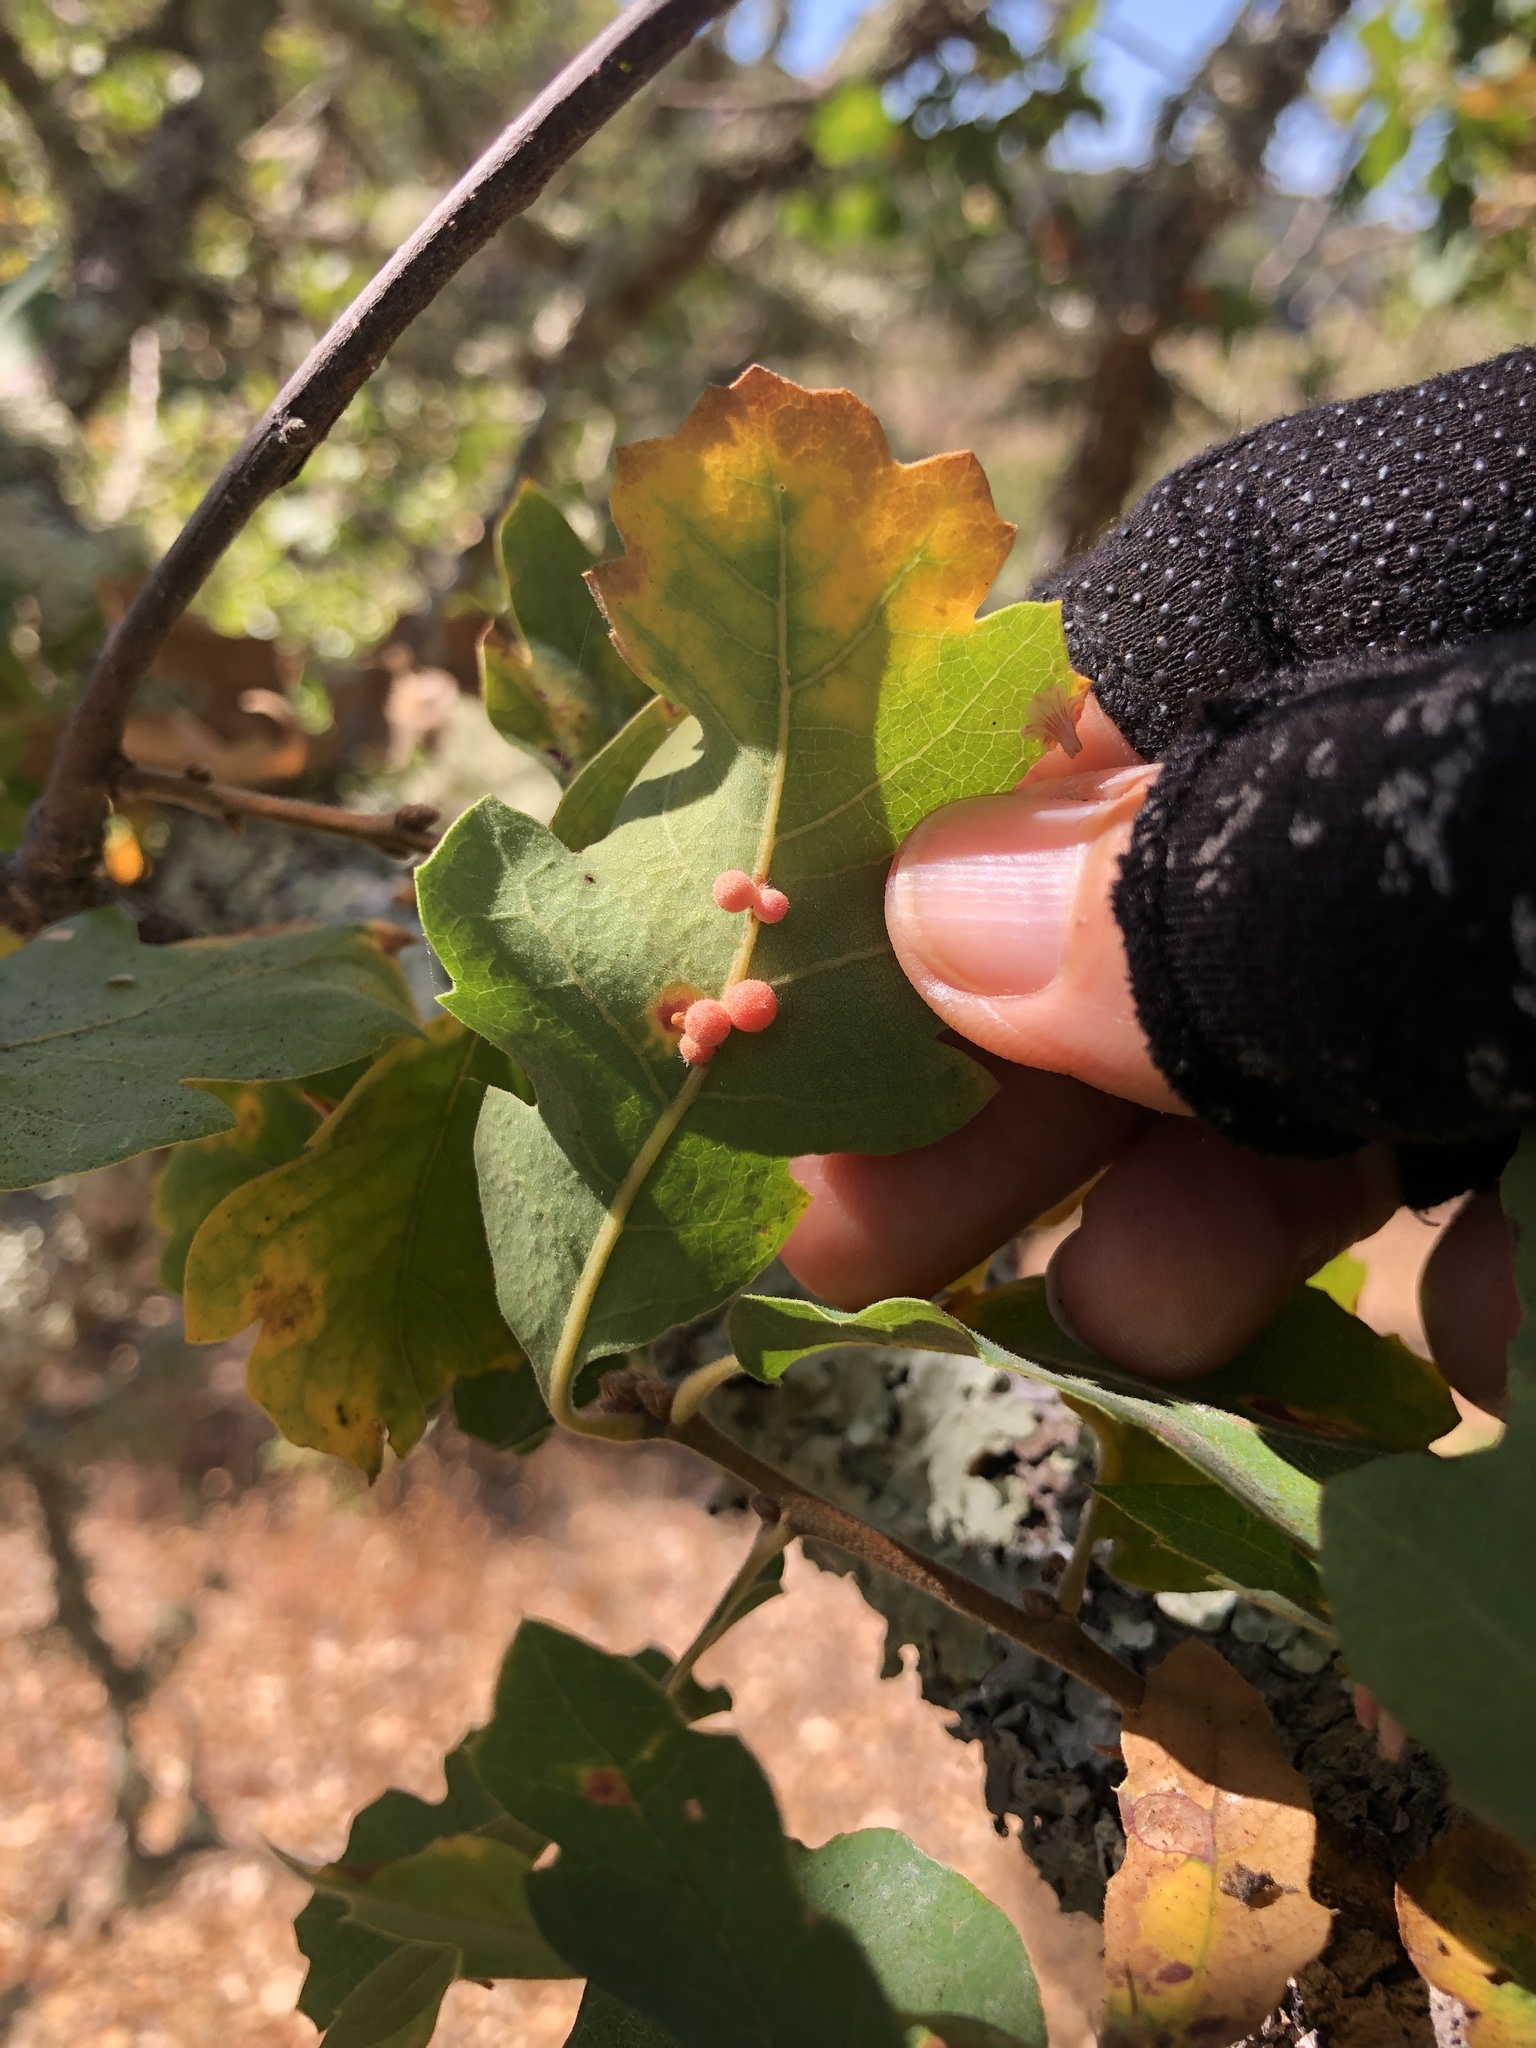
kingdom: Animalia
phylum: Arthropoda
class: Insecta
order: Hymenoptera
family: Cynipidae
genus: Andricus
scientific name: Andricus
